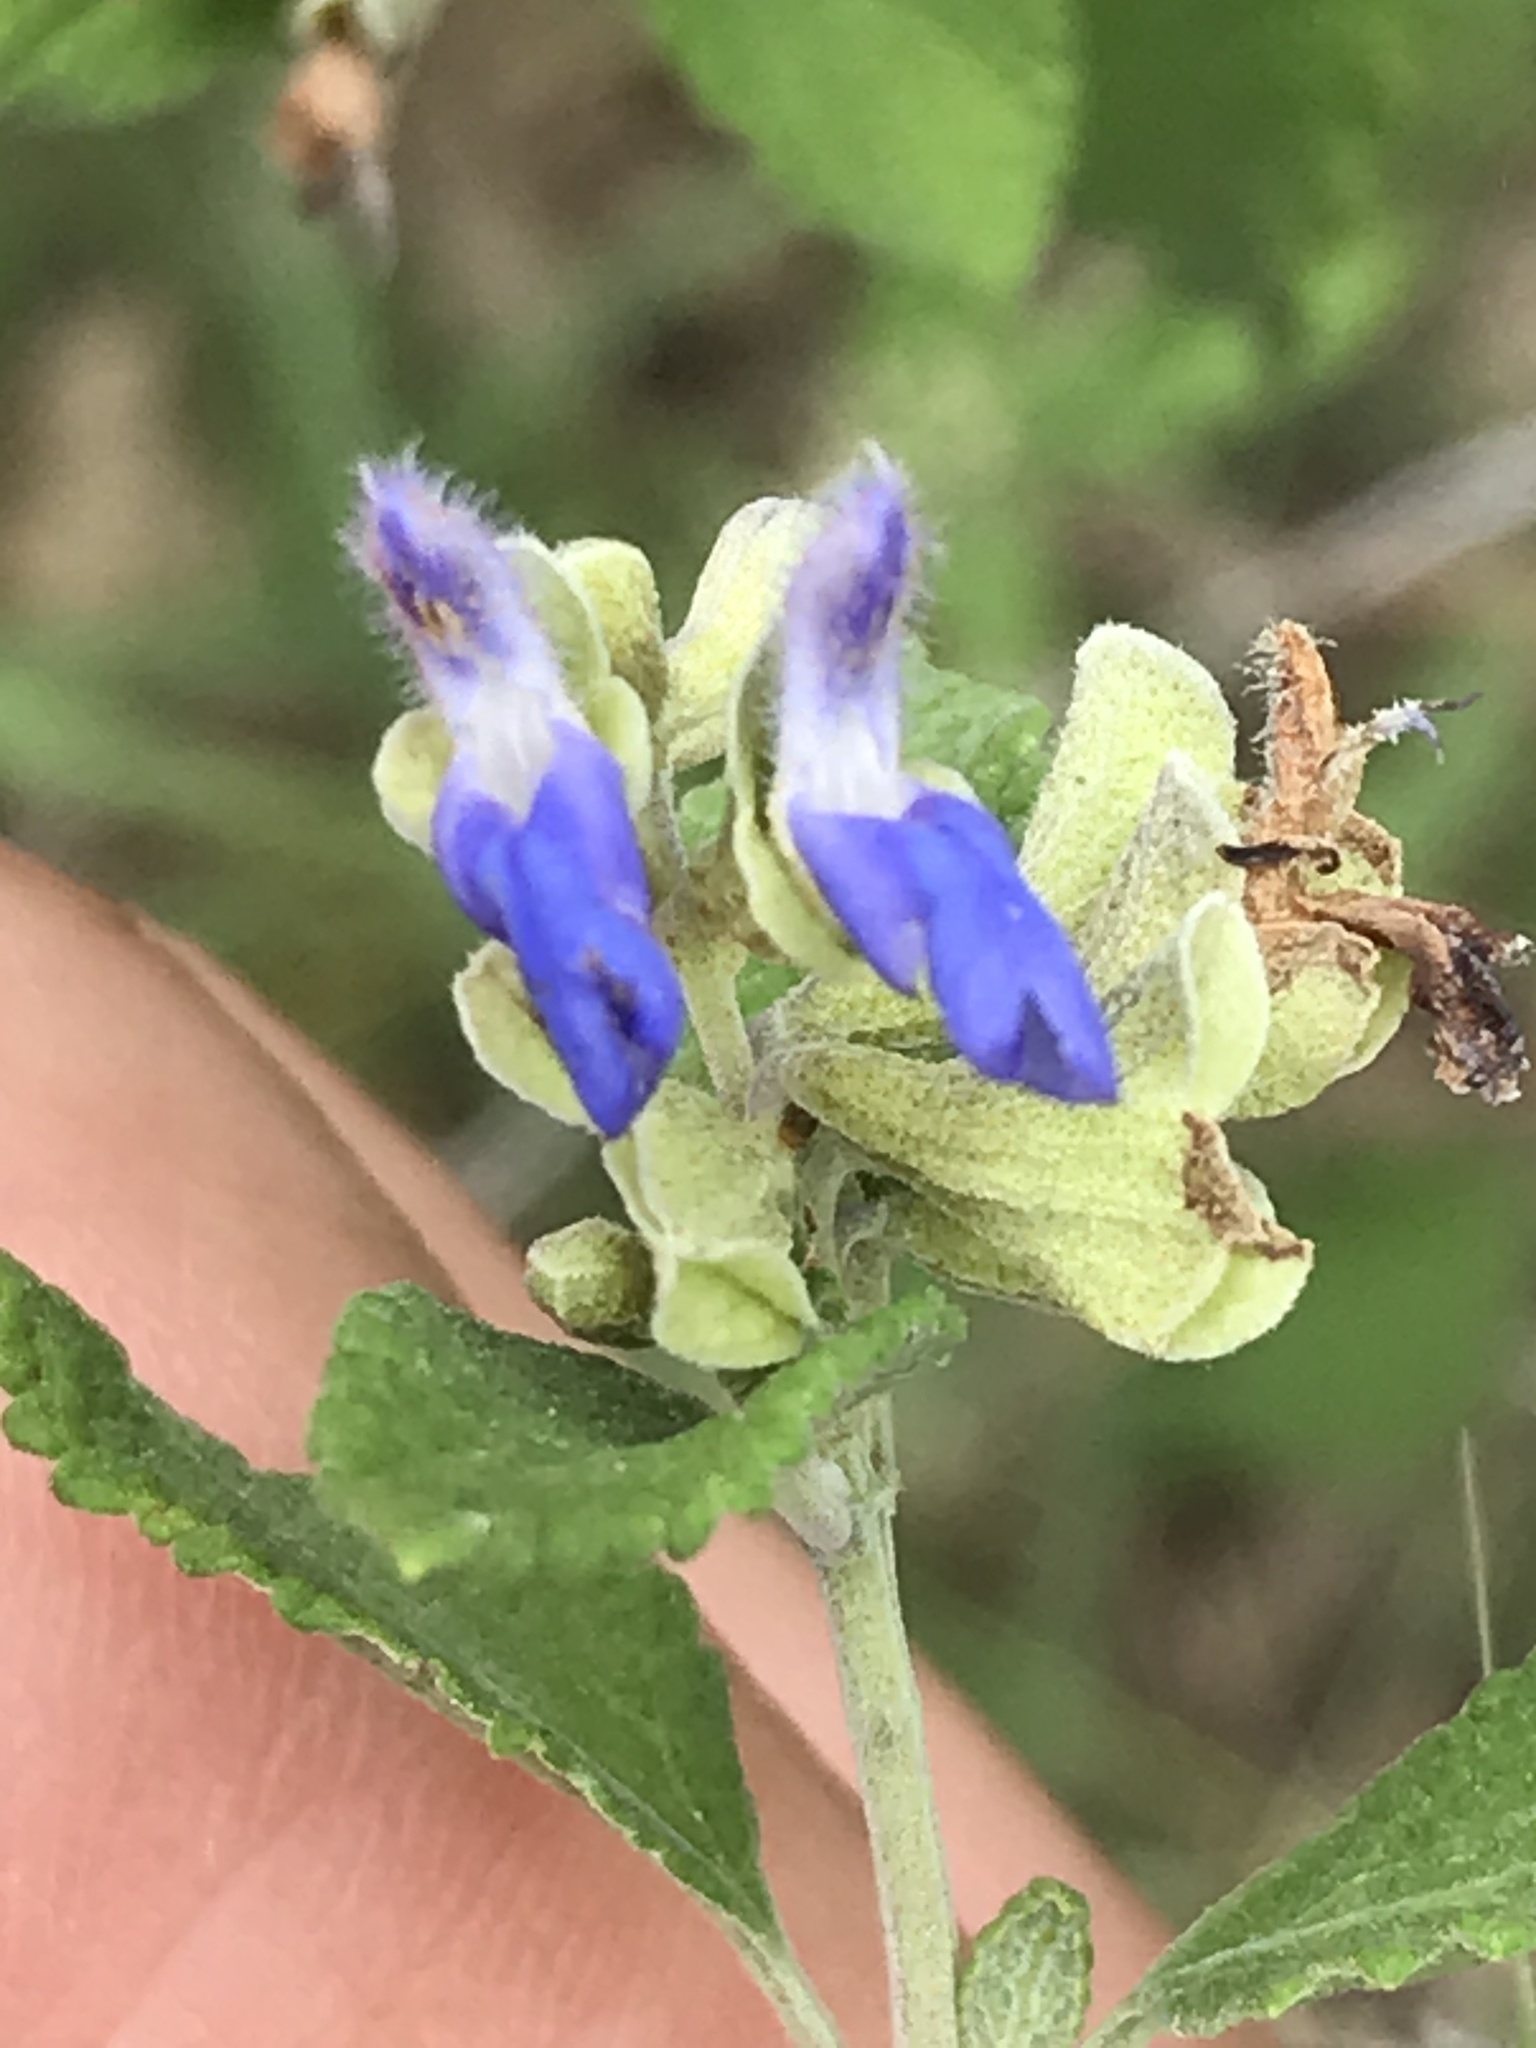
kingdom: Plantae
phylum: Tracheophyta
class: Magnoliopsida
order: Lamiales
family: Lamiaceae
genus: Salvia
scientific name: Salvia ballotiflora
